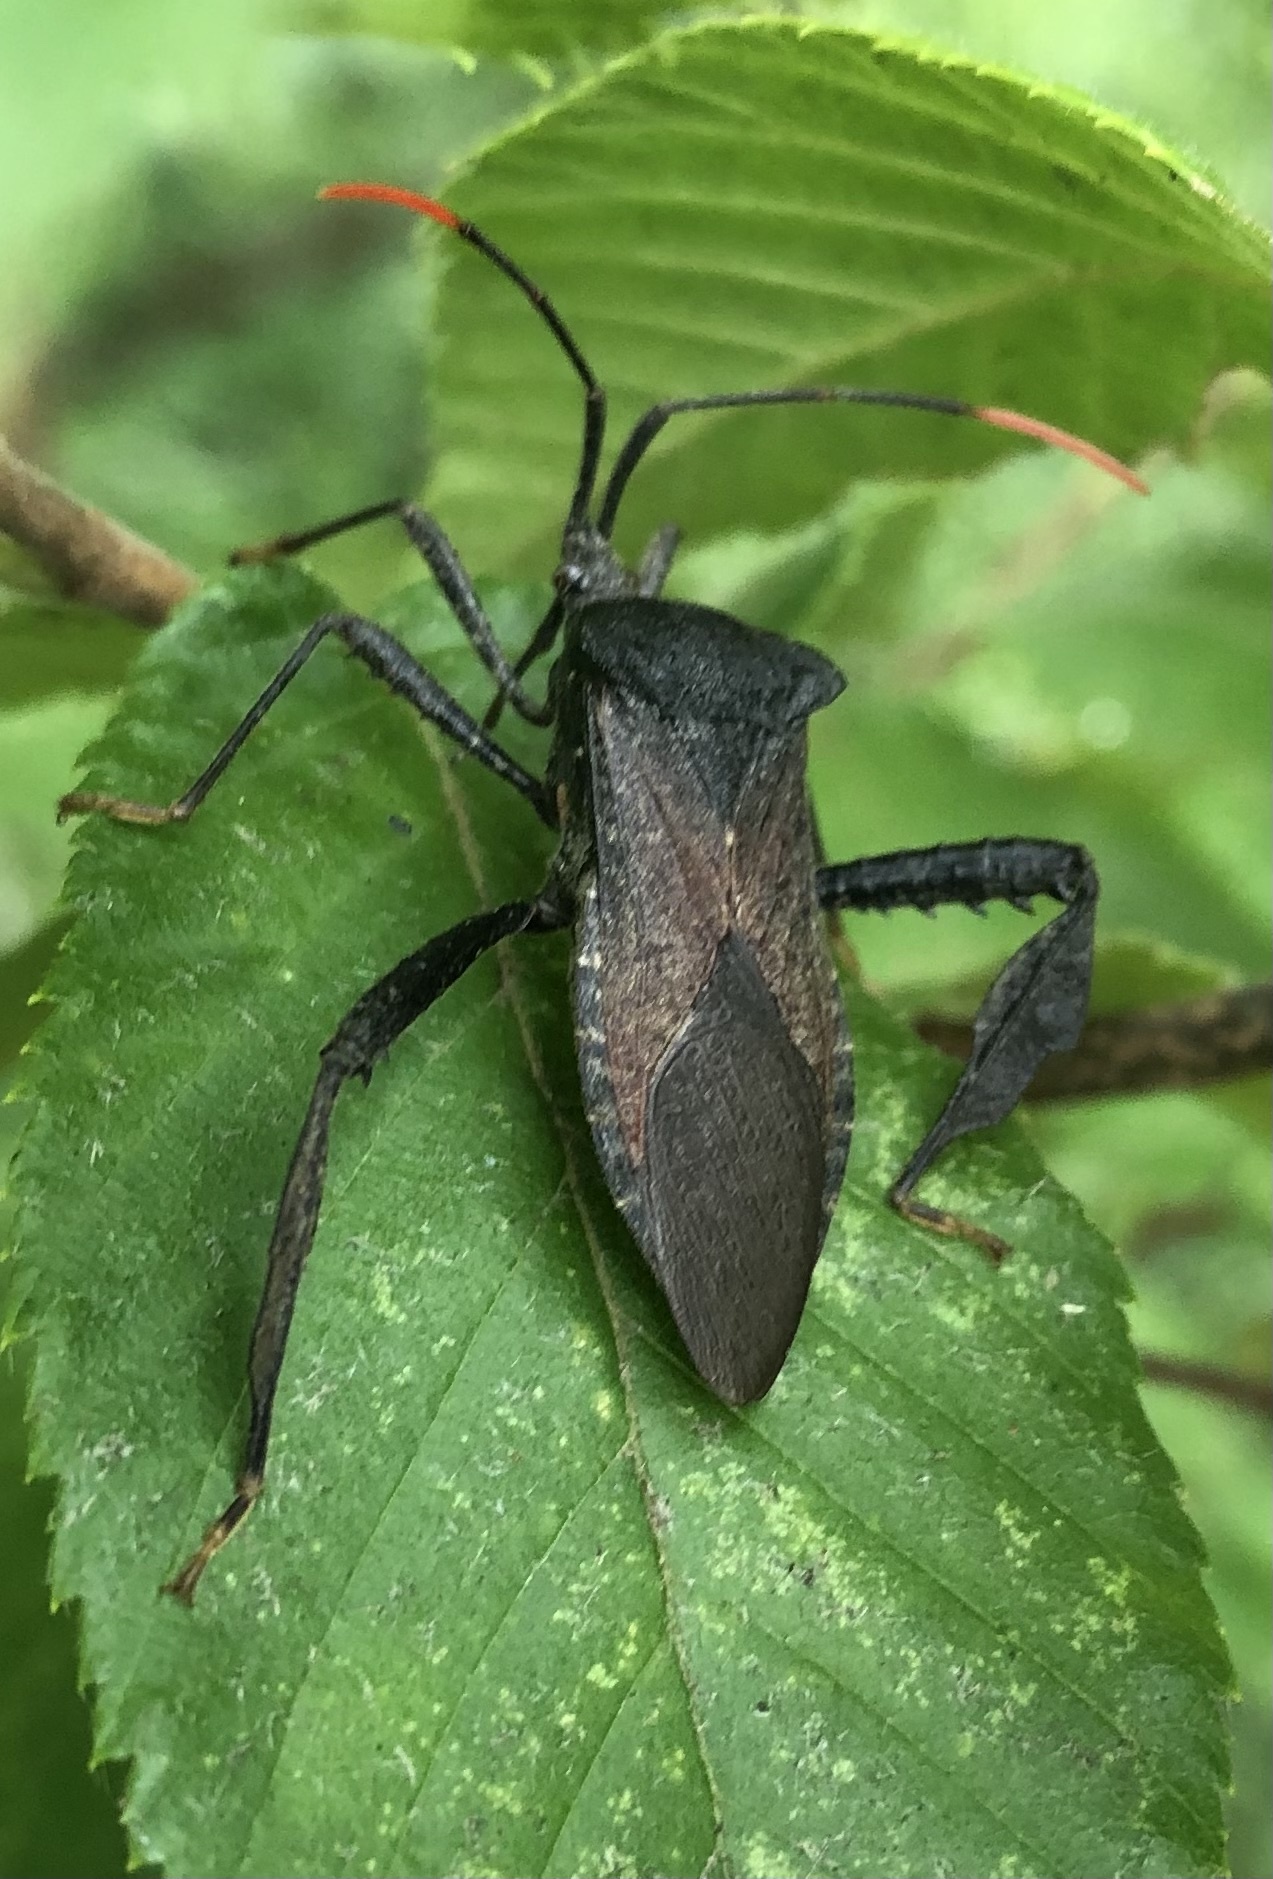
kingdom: Animalia
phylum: Arthropoda
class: Insecta
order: Hemiptera
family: Coreidae
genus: Acanthocephala
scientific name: Acanthocephala terminalis
